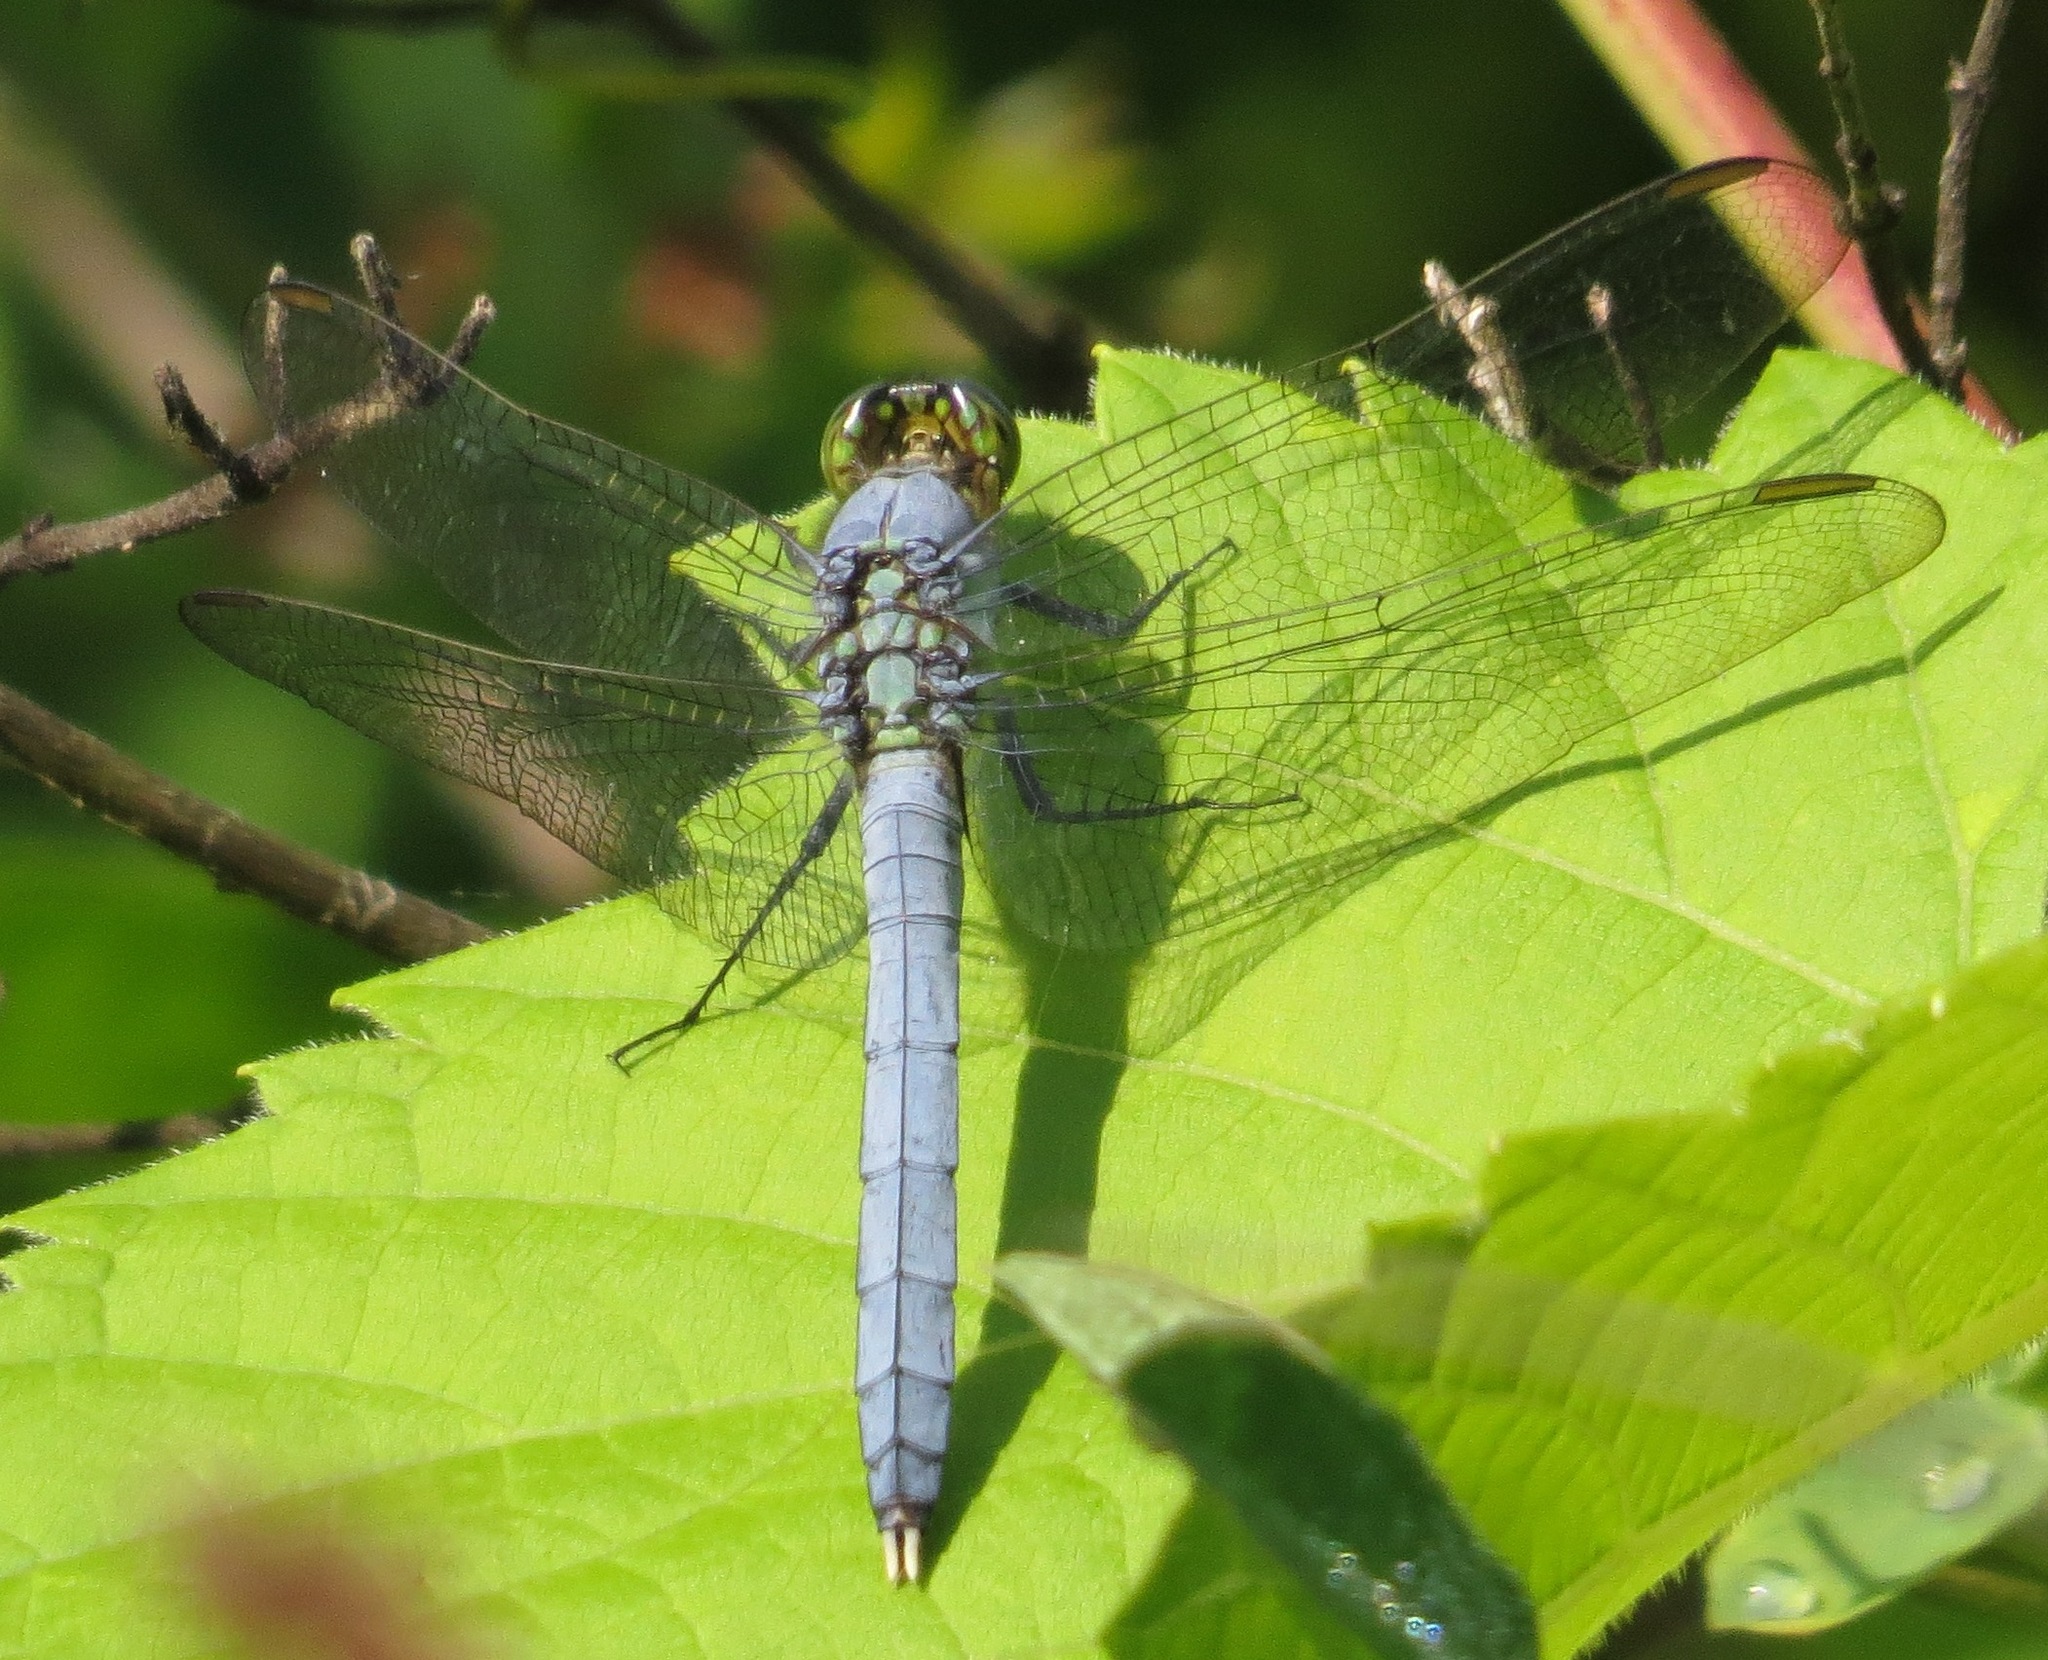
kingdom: Animalia
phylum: Arthropoda
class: Insecta
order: Odonata
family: Libellulidae
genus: Erythemis
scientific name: Erythemis simplicicollis
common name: Eastern pondhawk
